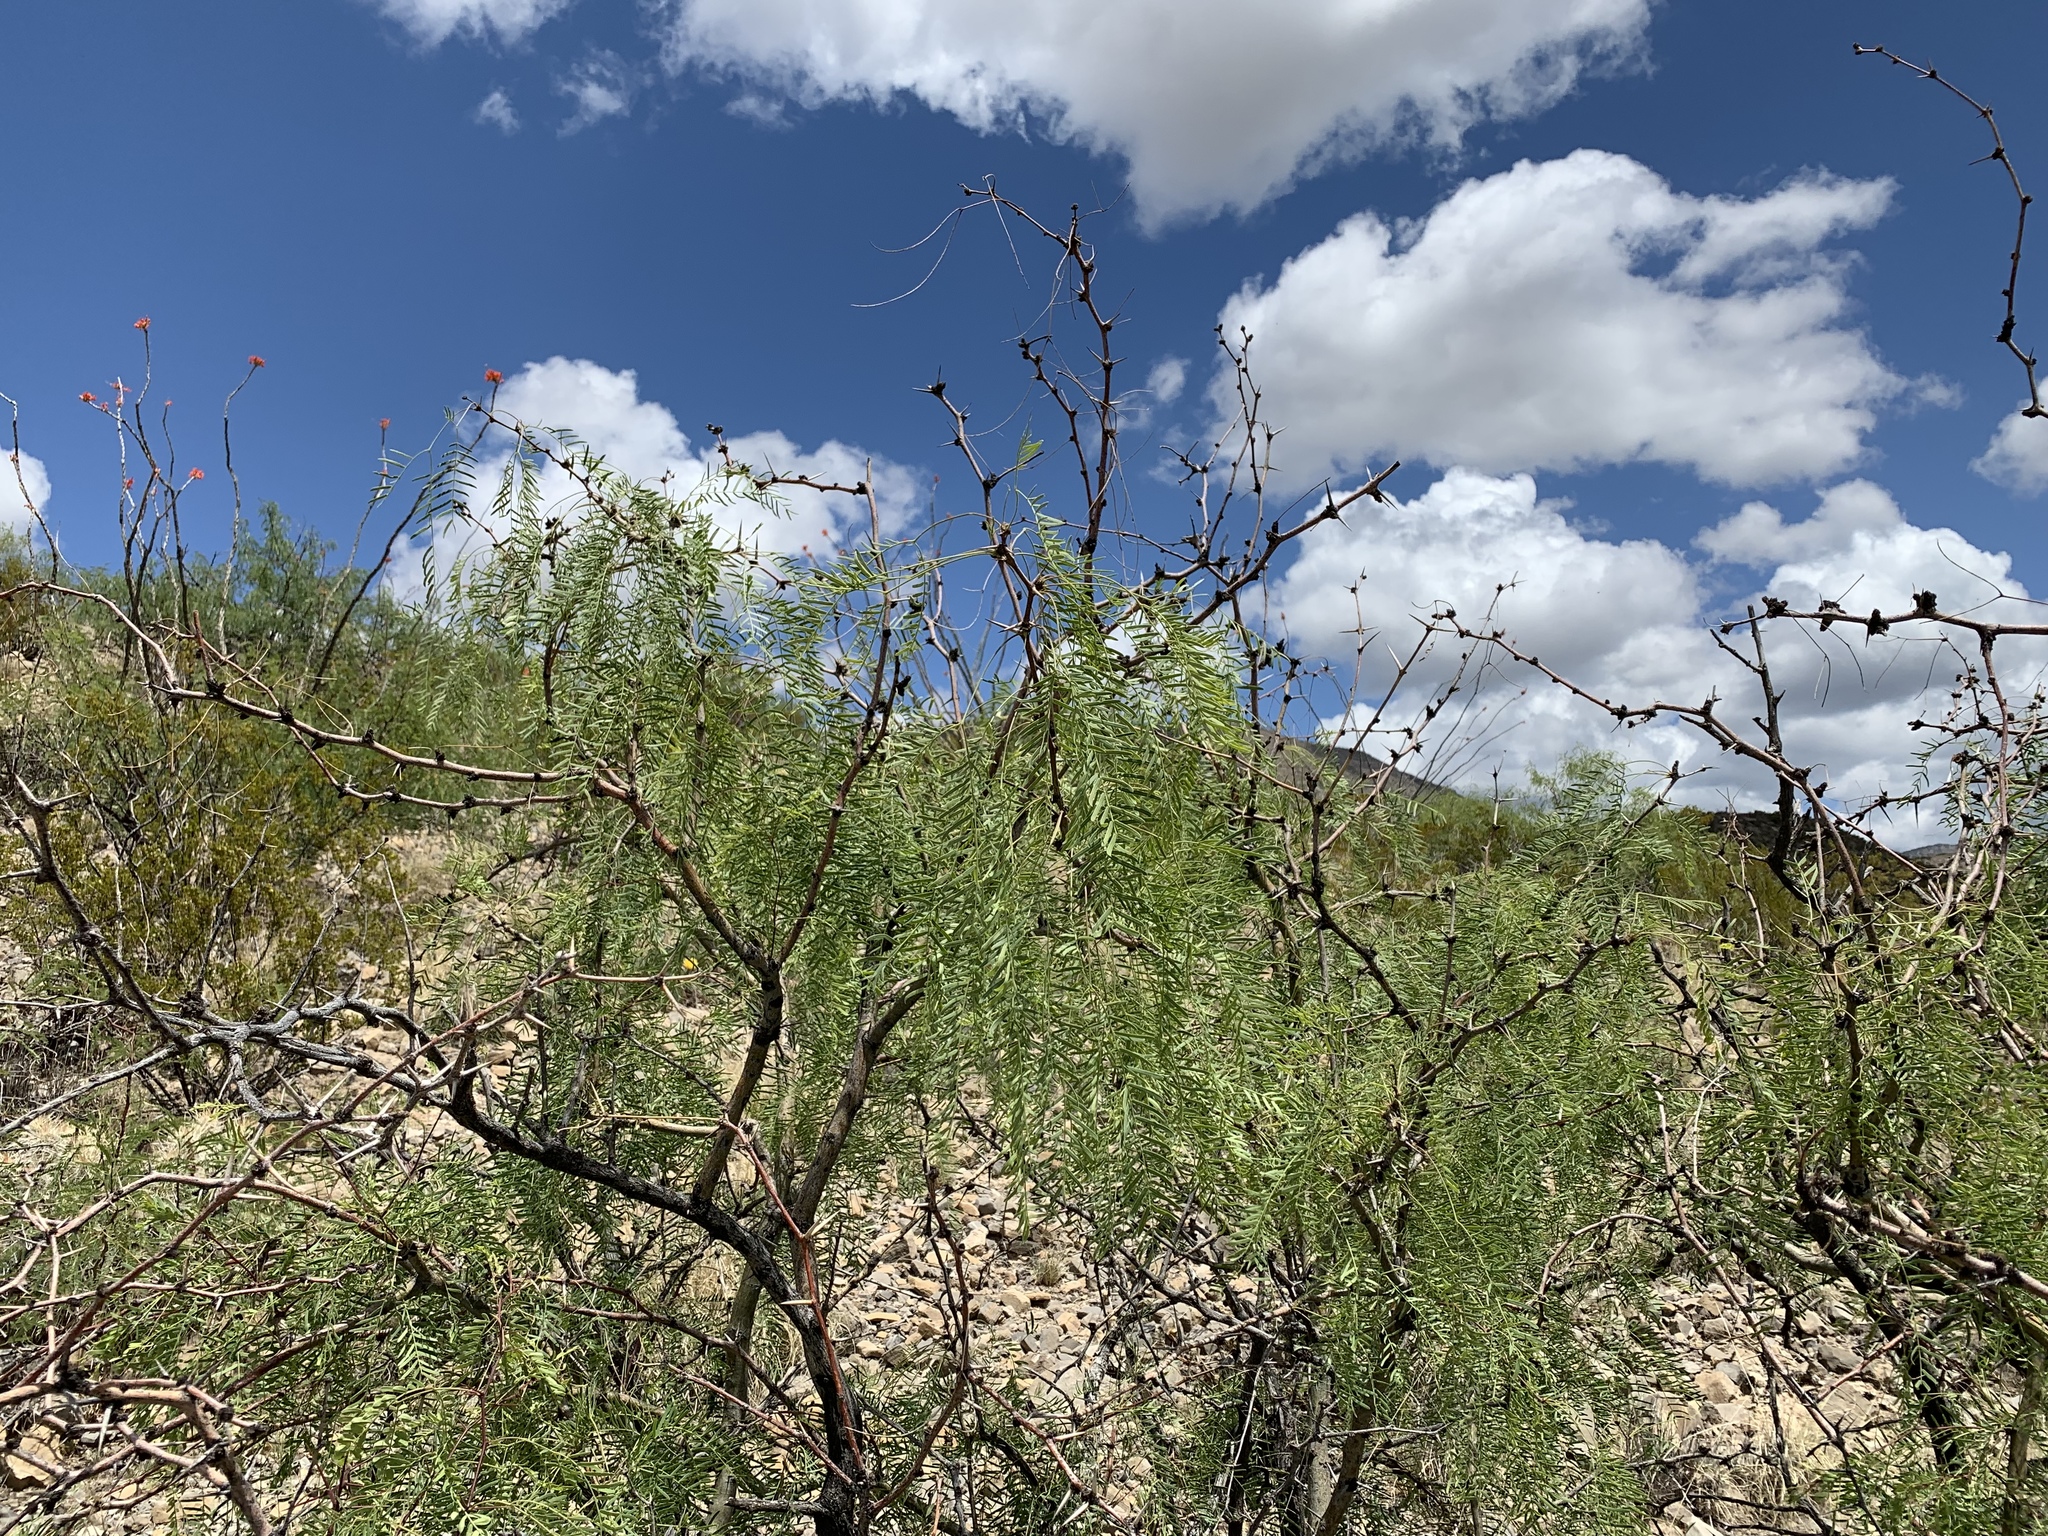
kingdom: Plantae
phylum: Tracheophyta
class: Magnoliopsida
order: Fabales
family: Fabaceae
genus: Prosopis
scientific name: Prosopis glandulosa
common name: Honey mesquite
